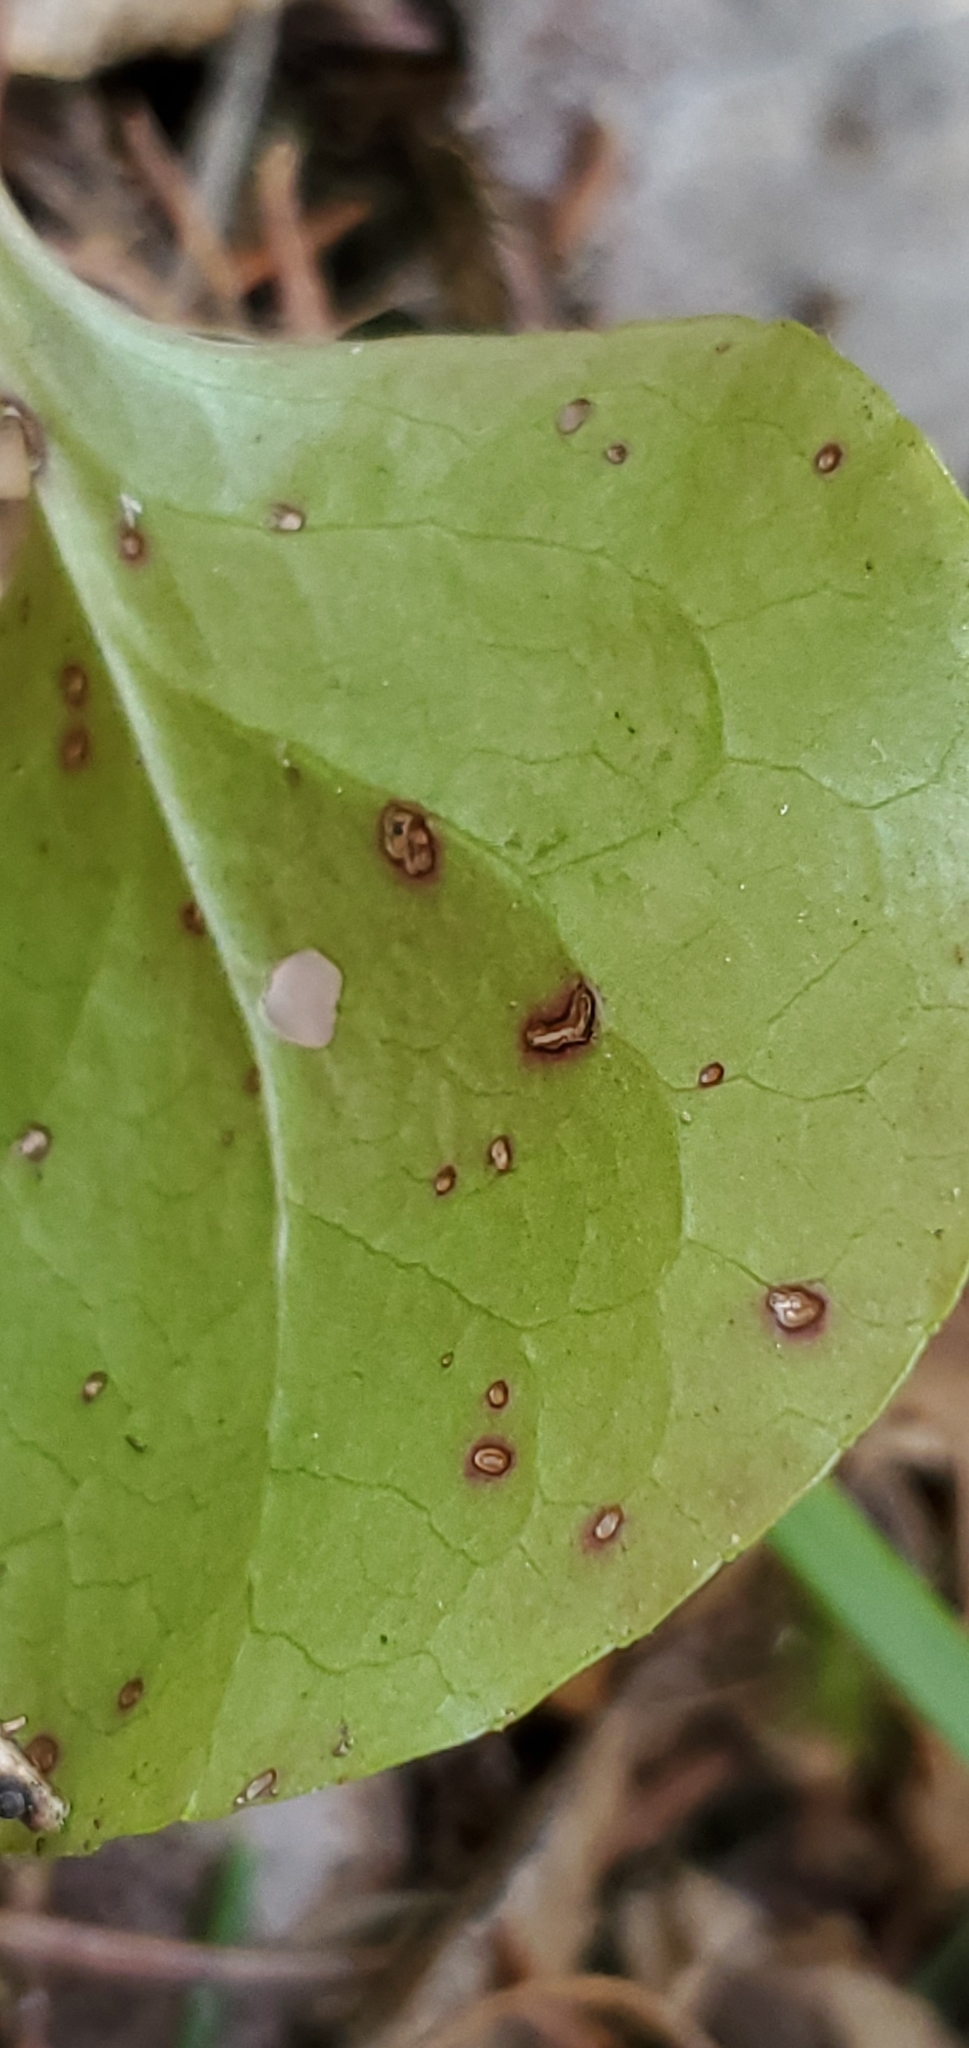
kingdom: Plantae
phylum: Tracheophyta
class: Magnoliopsida
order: Ericales
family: Ericaceae
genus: Pyrola
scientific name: Pyrola americana
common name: American wintergreen
